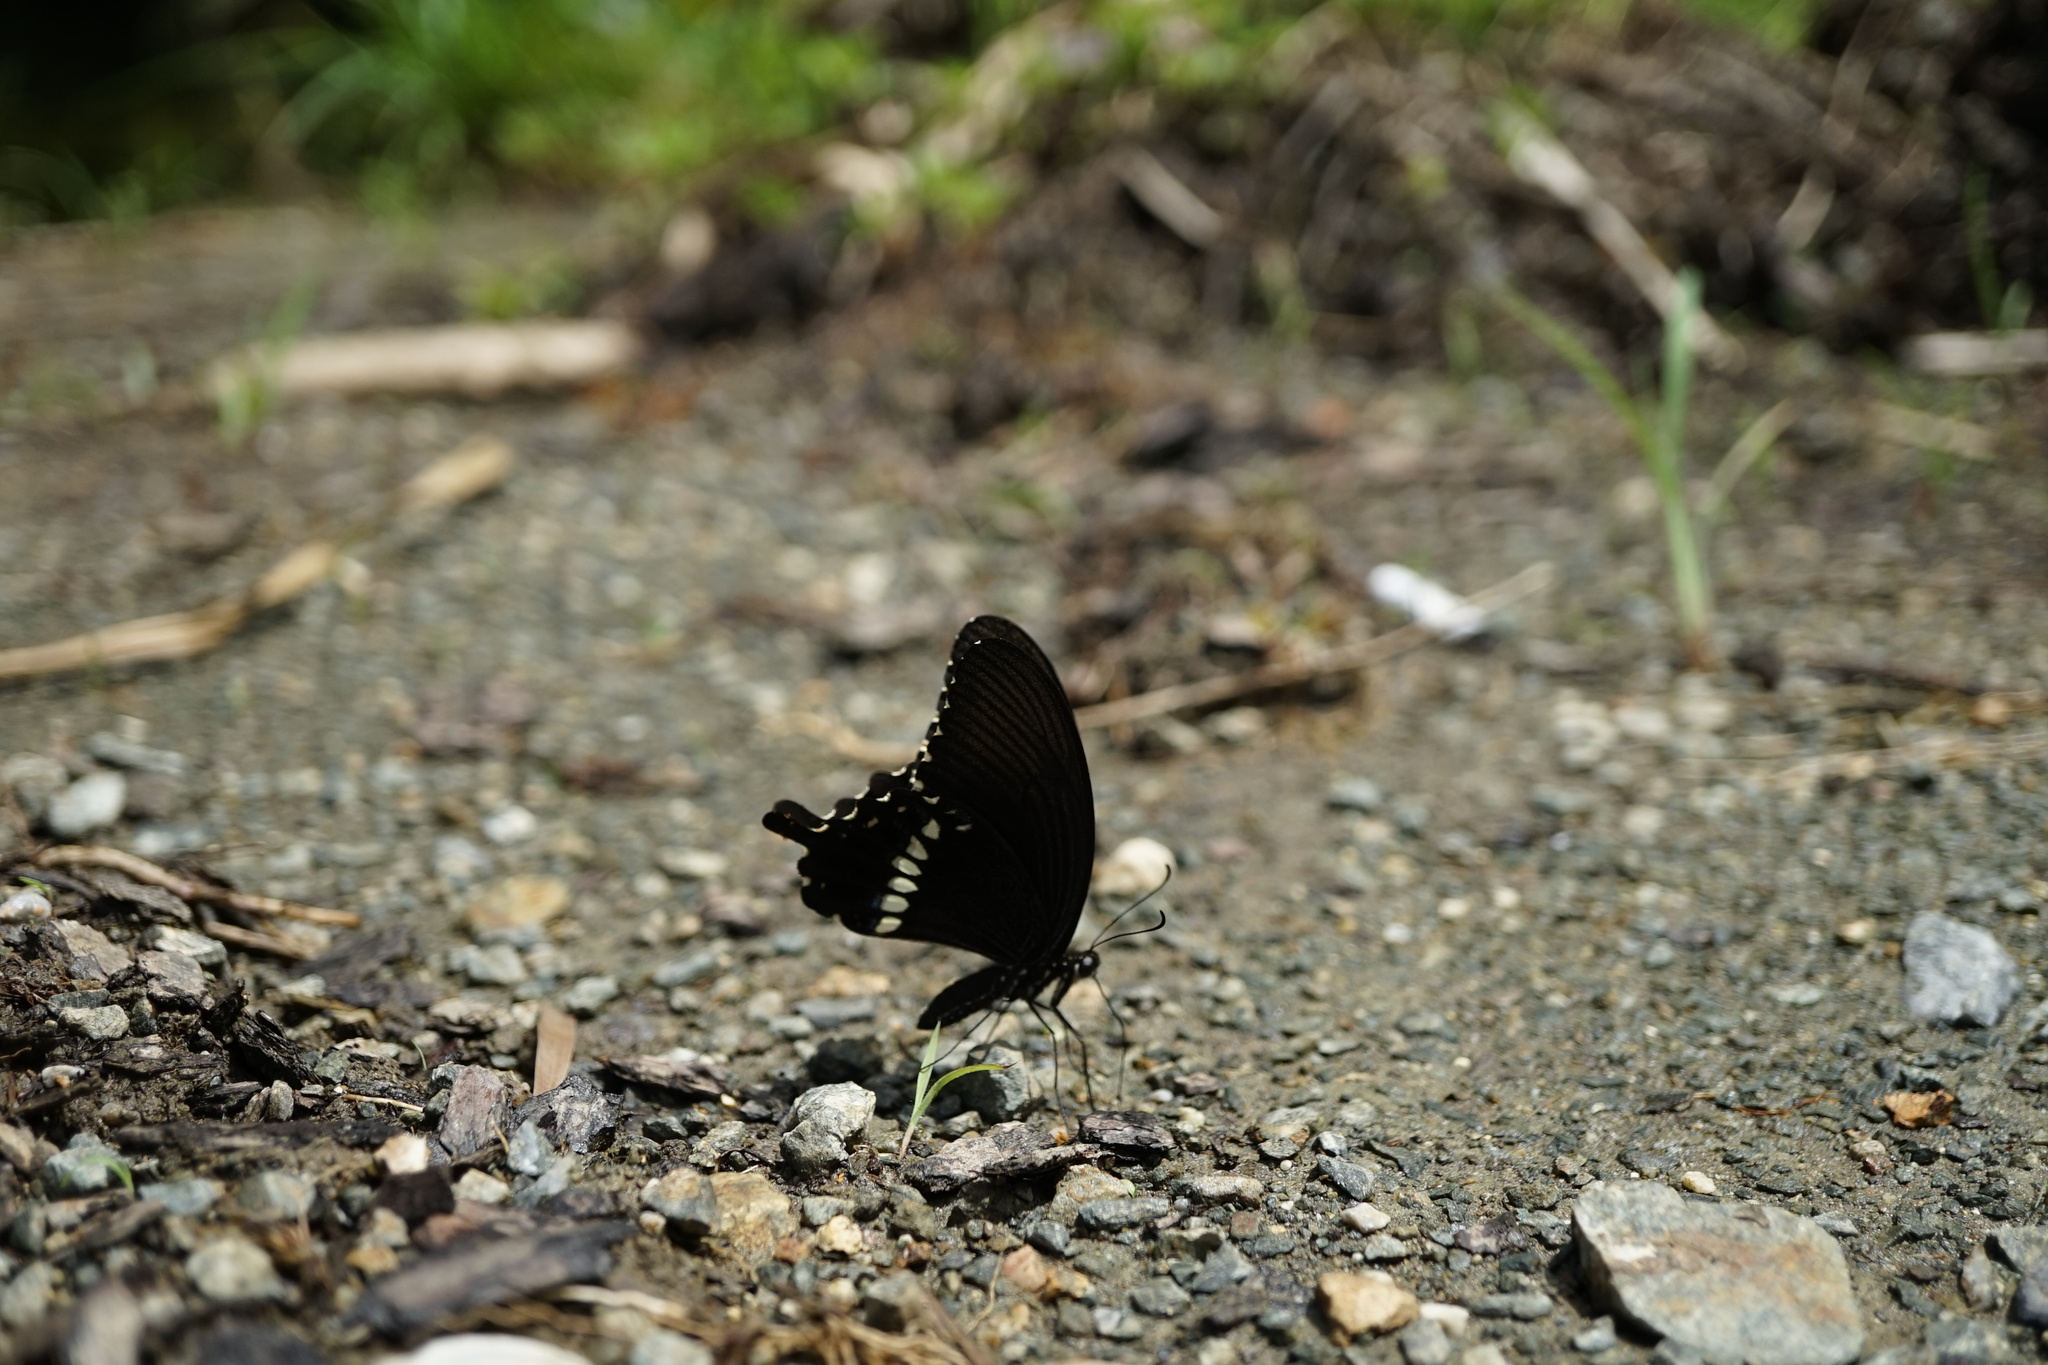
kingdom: Animalia
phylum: Arthropoda
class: Insecta
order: Lepidoptera
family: Papilionidae
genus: Papilio
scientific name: Papilio polytes
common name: Common mormon
